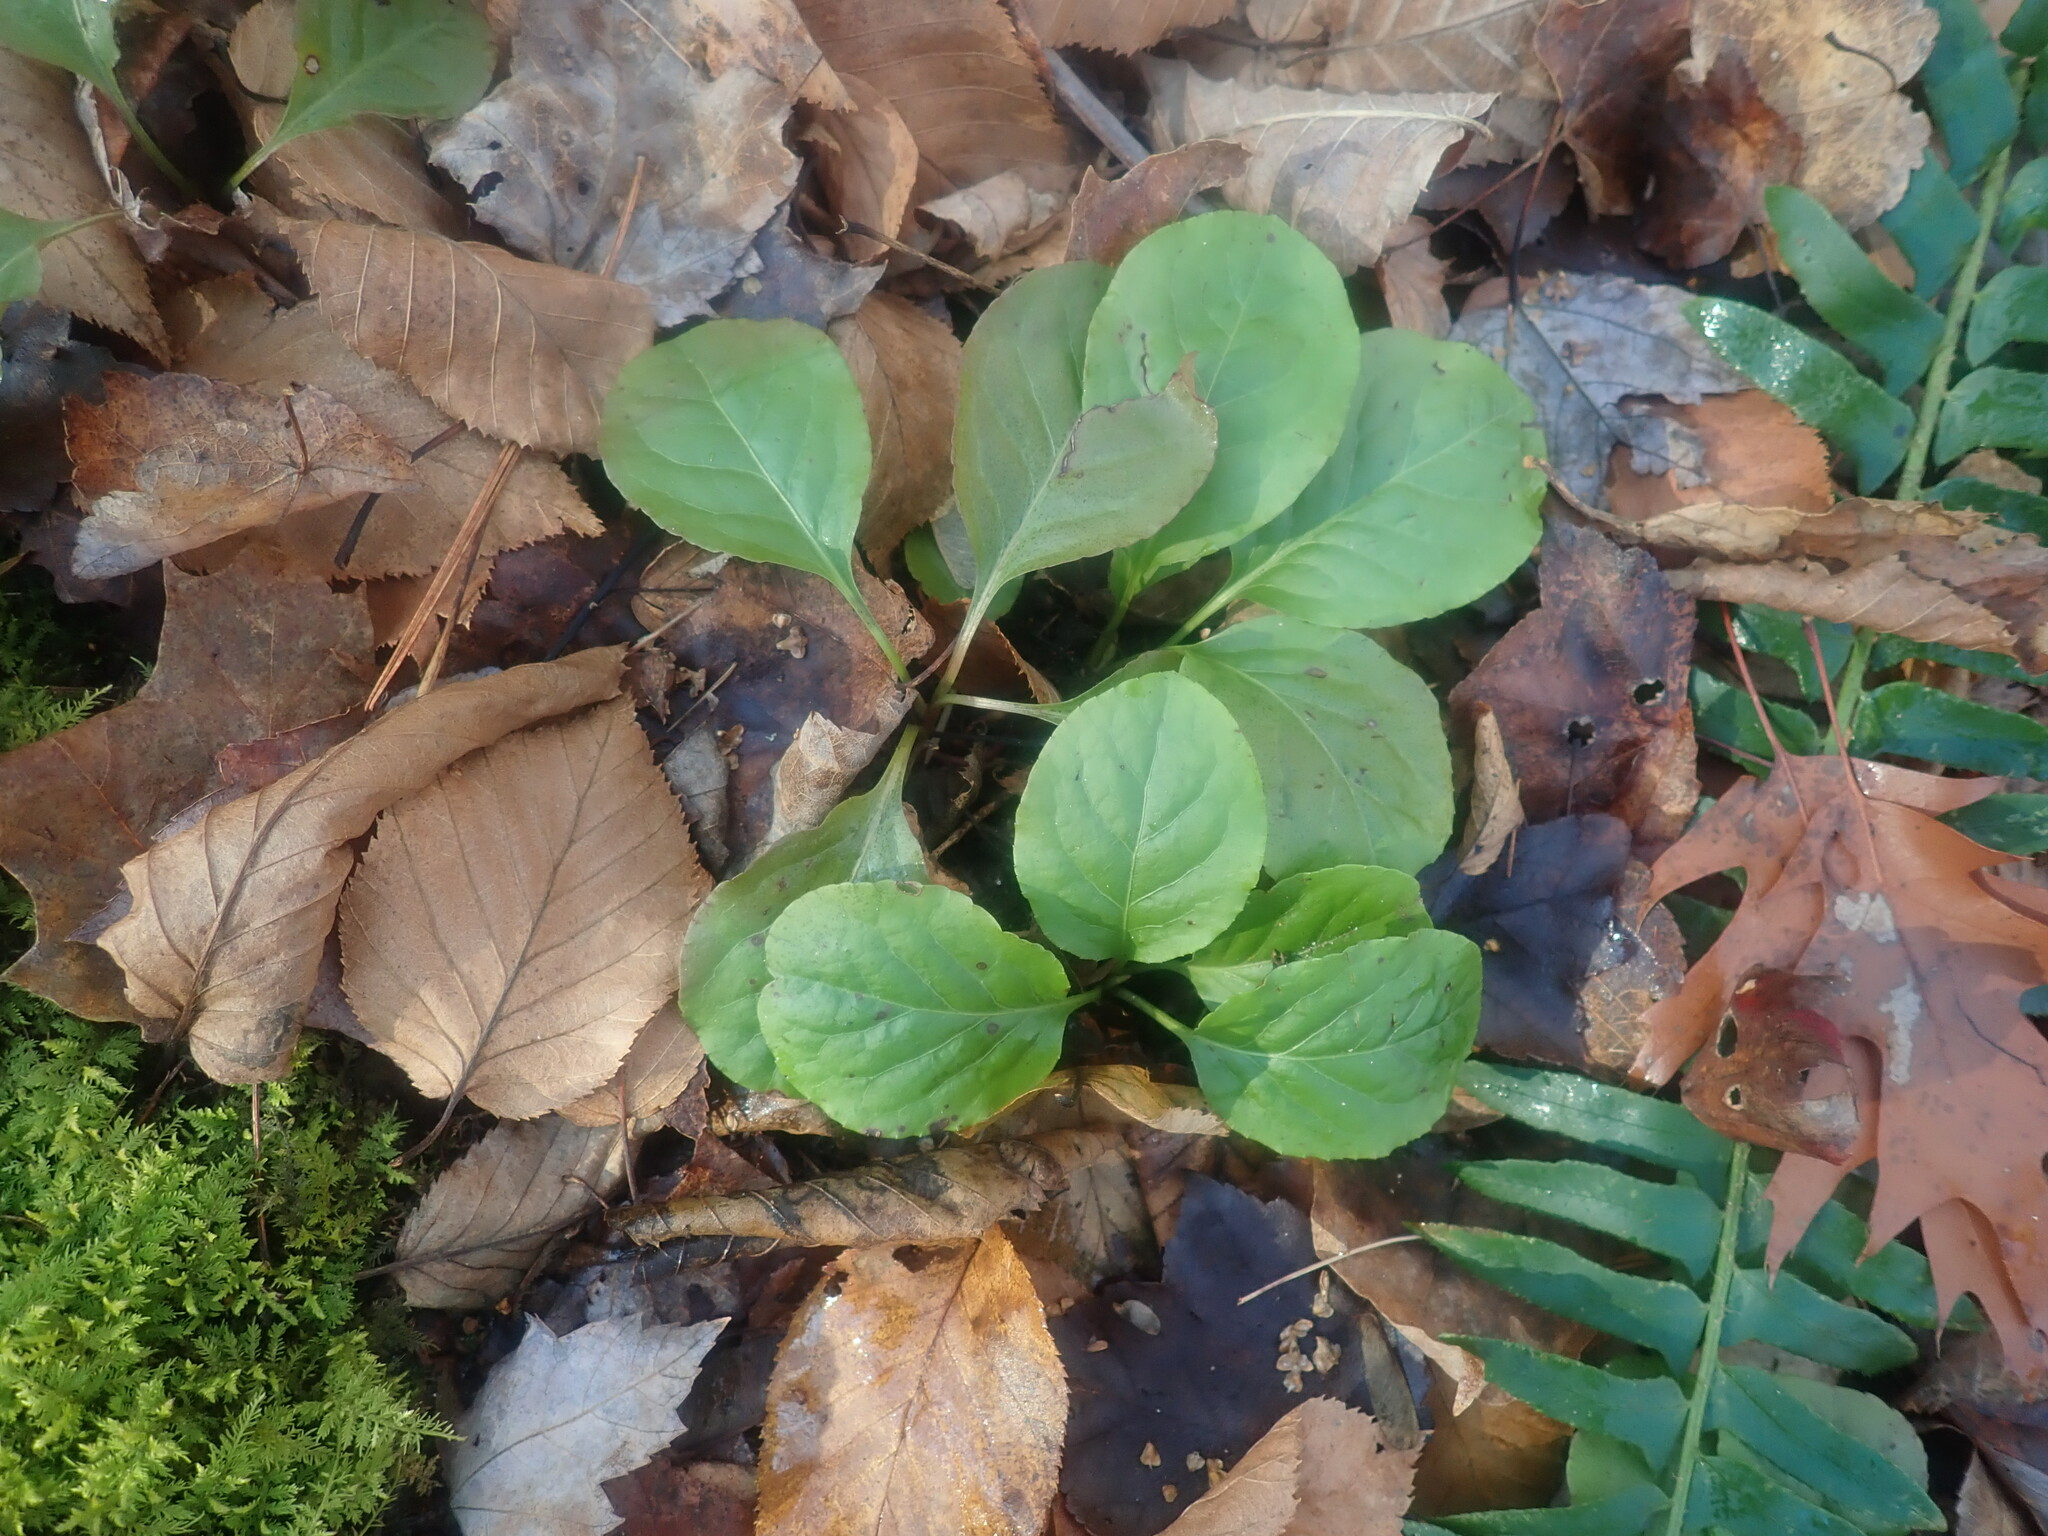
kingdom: Plantae
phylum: Tracheophyta
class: Magnoliopsida
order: Ericales
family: Ericaceae
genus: Pyrola
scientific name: Pyrola elliptica
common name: Shinleaf
